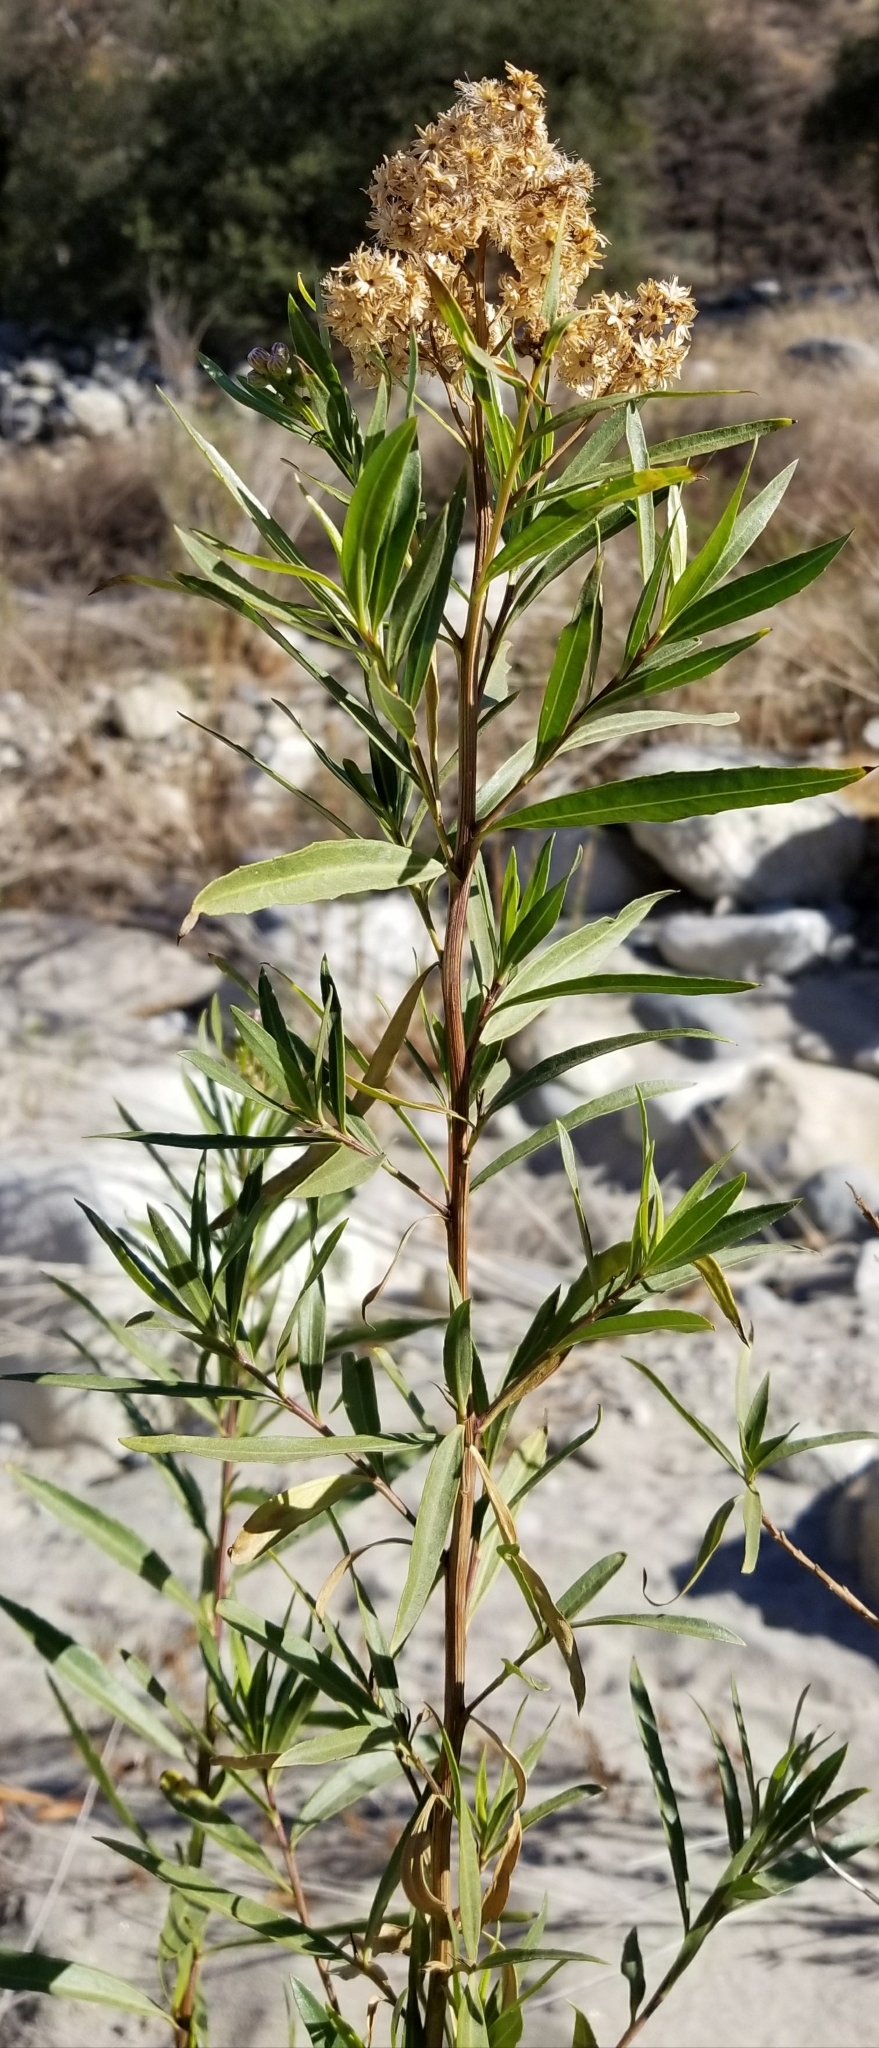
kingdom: Plantae
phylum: Tracheophyta
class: Magnoliopsida
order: Asterales
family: Asteraceae
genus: Baccharis
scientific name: Baccharis salicifolia
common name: Sticky baccharis
